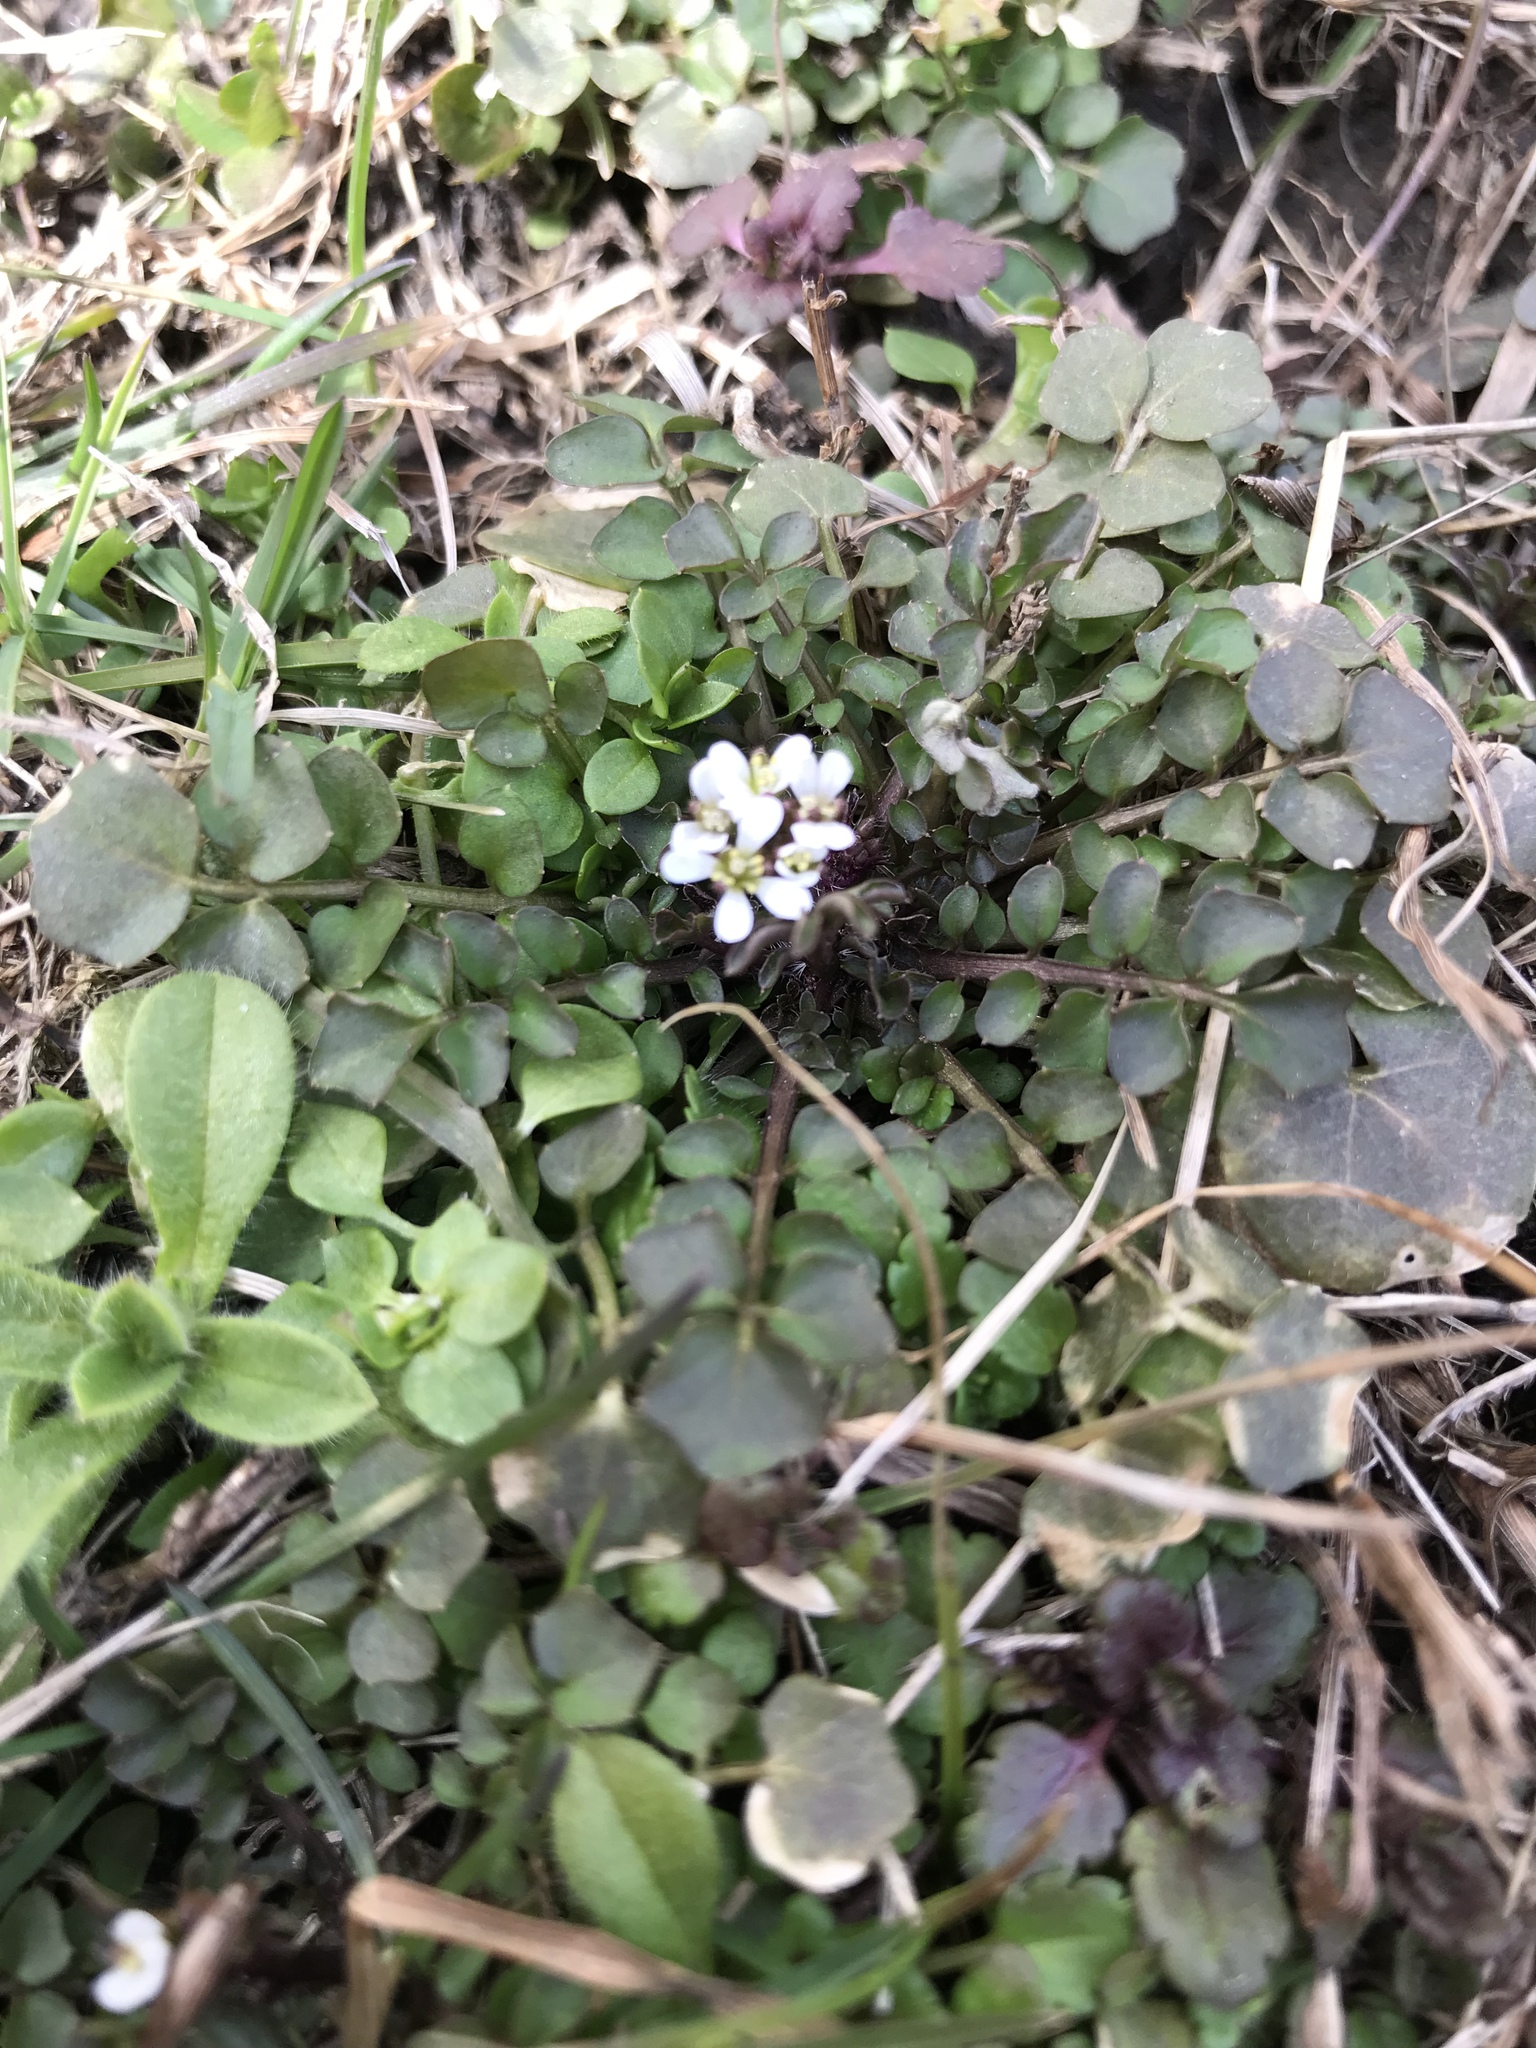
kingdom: Plantae
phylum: Tracheophyta
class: Magnoliopsida
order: Brassicales
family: Brassicaceae
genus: Cardamine
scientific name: Cardamine hirsuta
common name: Hairy bittercress
